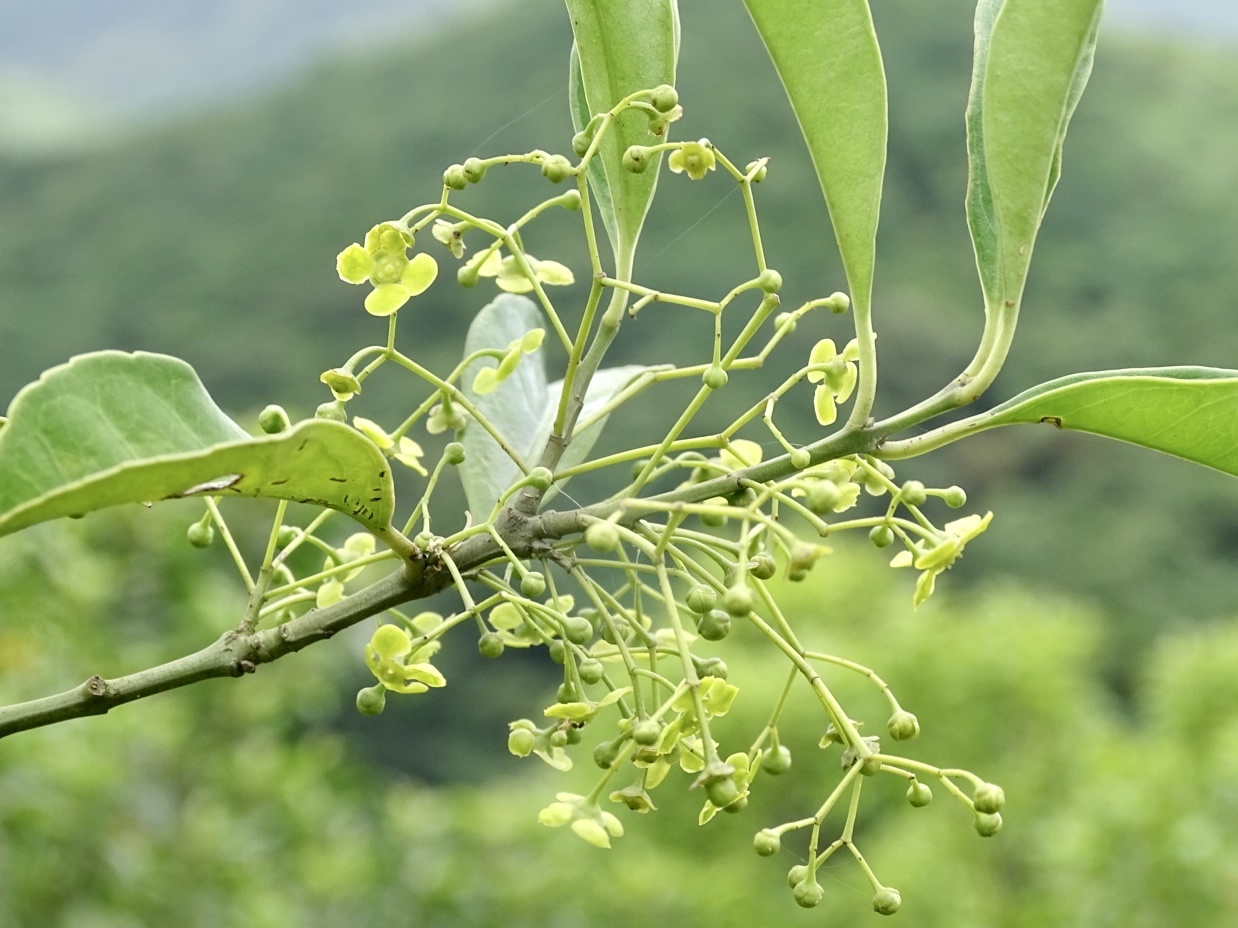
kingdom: Plantae
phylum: Tracheophyta
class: Magnoliopsida
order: Celastrales
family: Celastraceae
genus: Euonymus
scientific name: Euonymus nitidus
